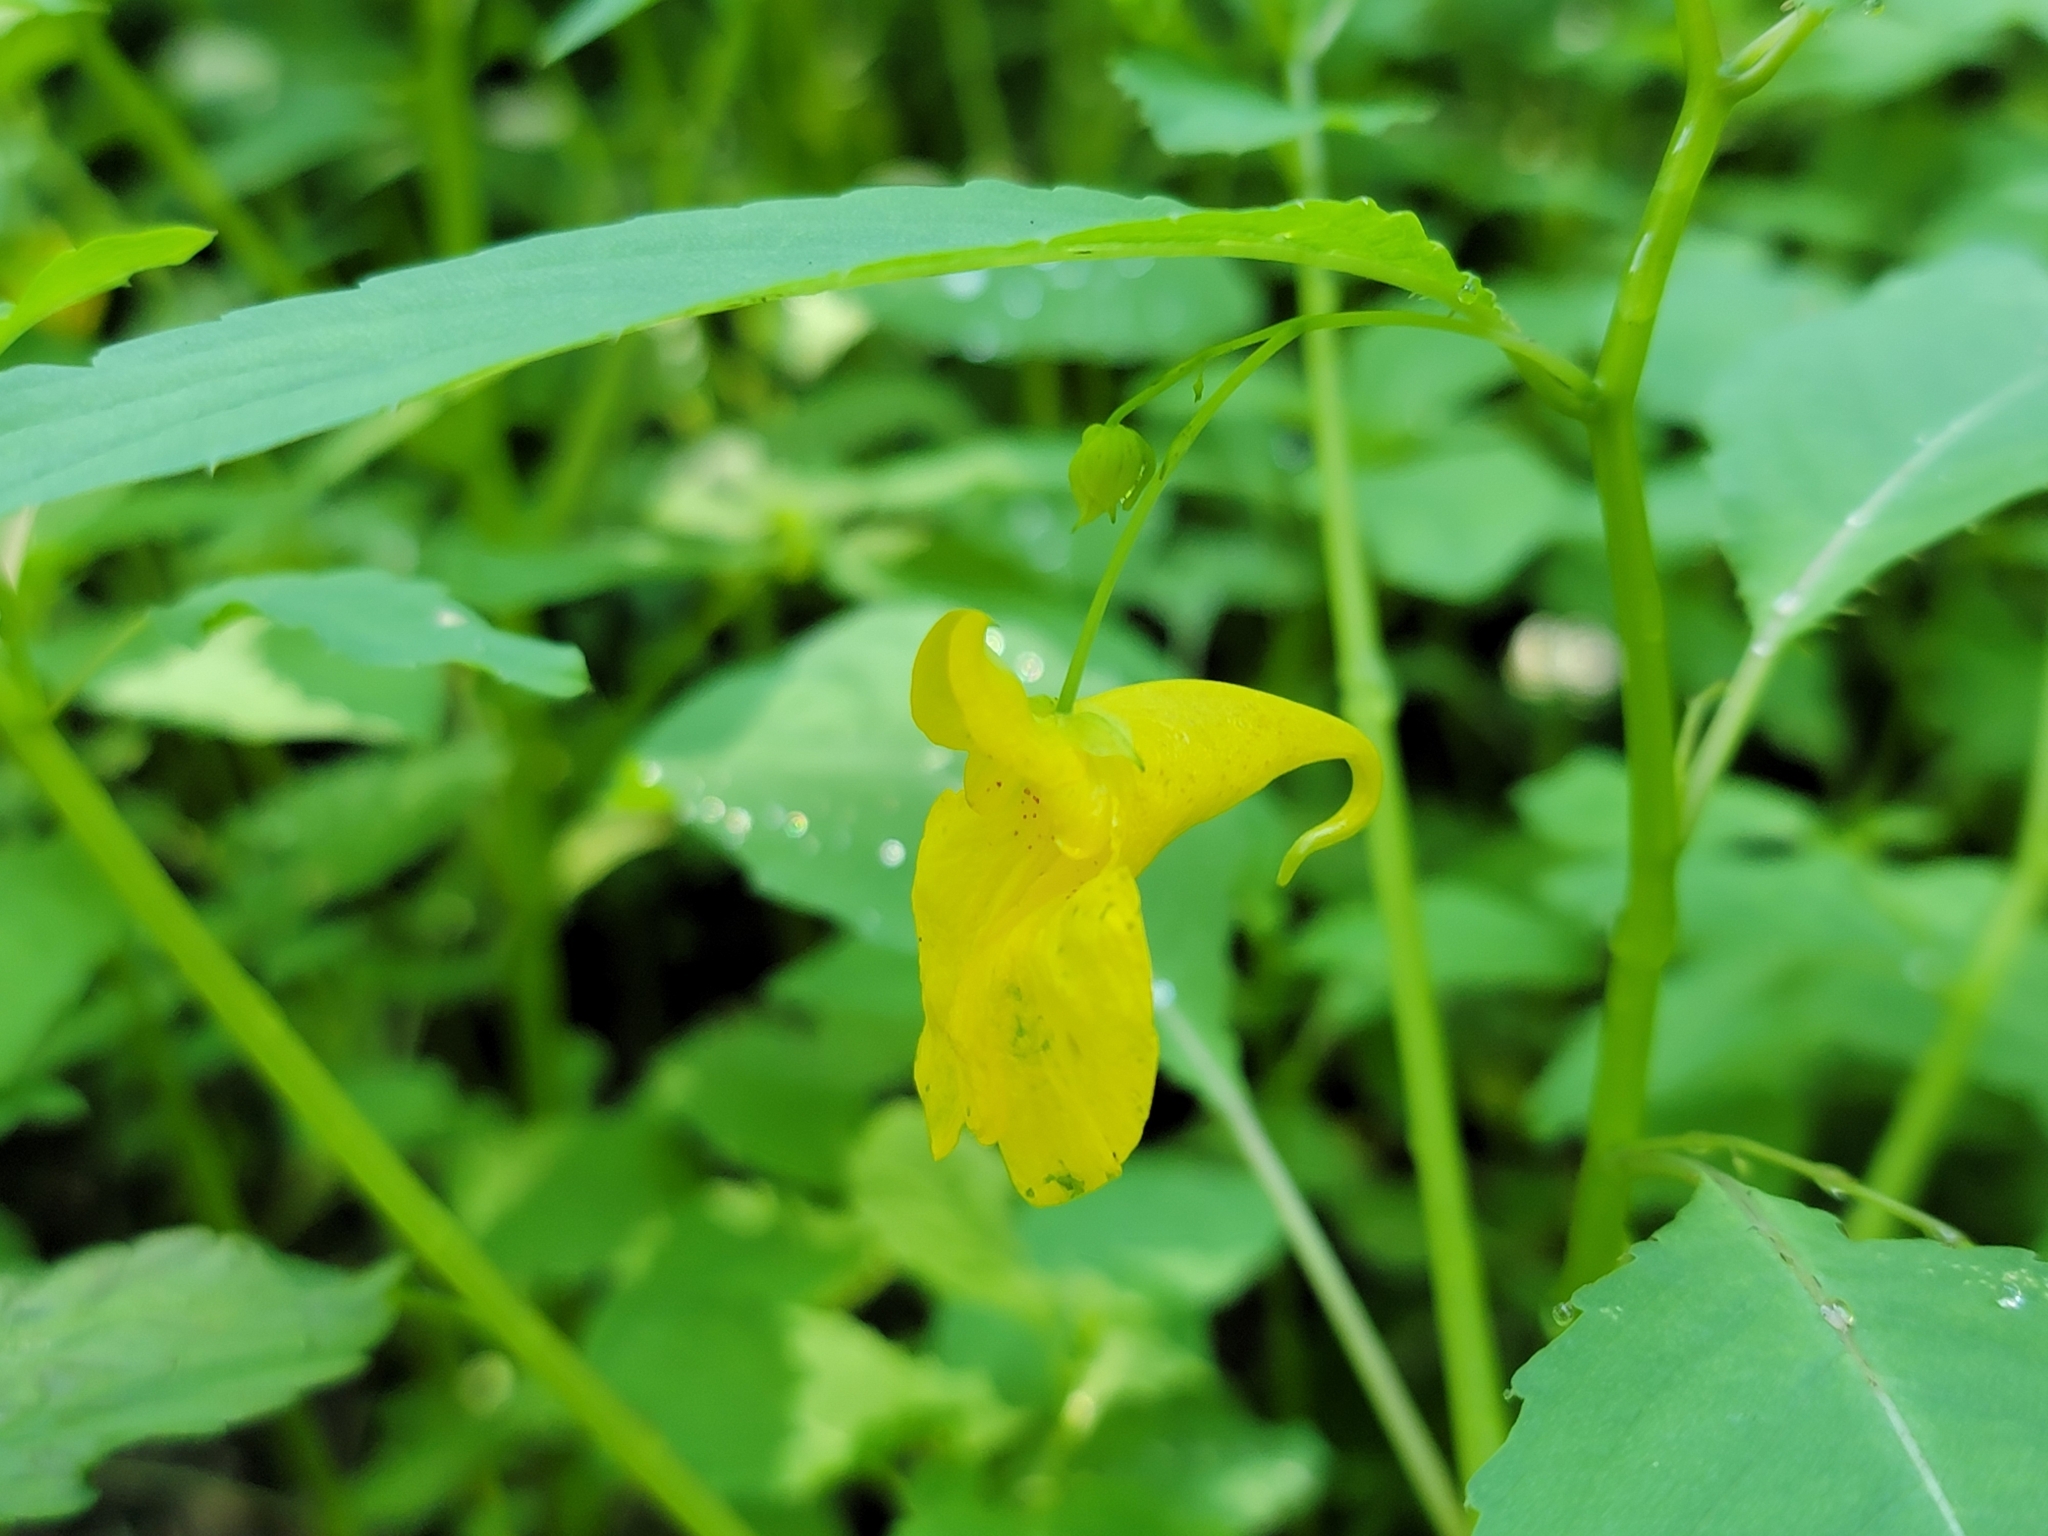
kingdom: Plantae
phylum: Tracheophyta
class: Magnoliopsida
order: Ericales
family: Balsaminaceae
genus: Impatiens
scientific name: Impatiens noli-tangere
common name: Touch-me-not balsam
